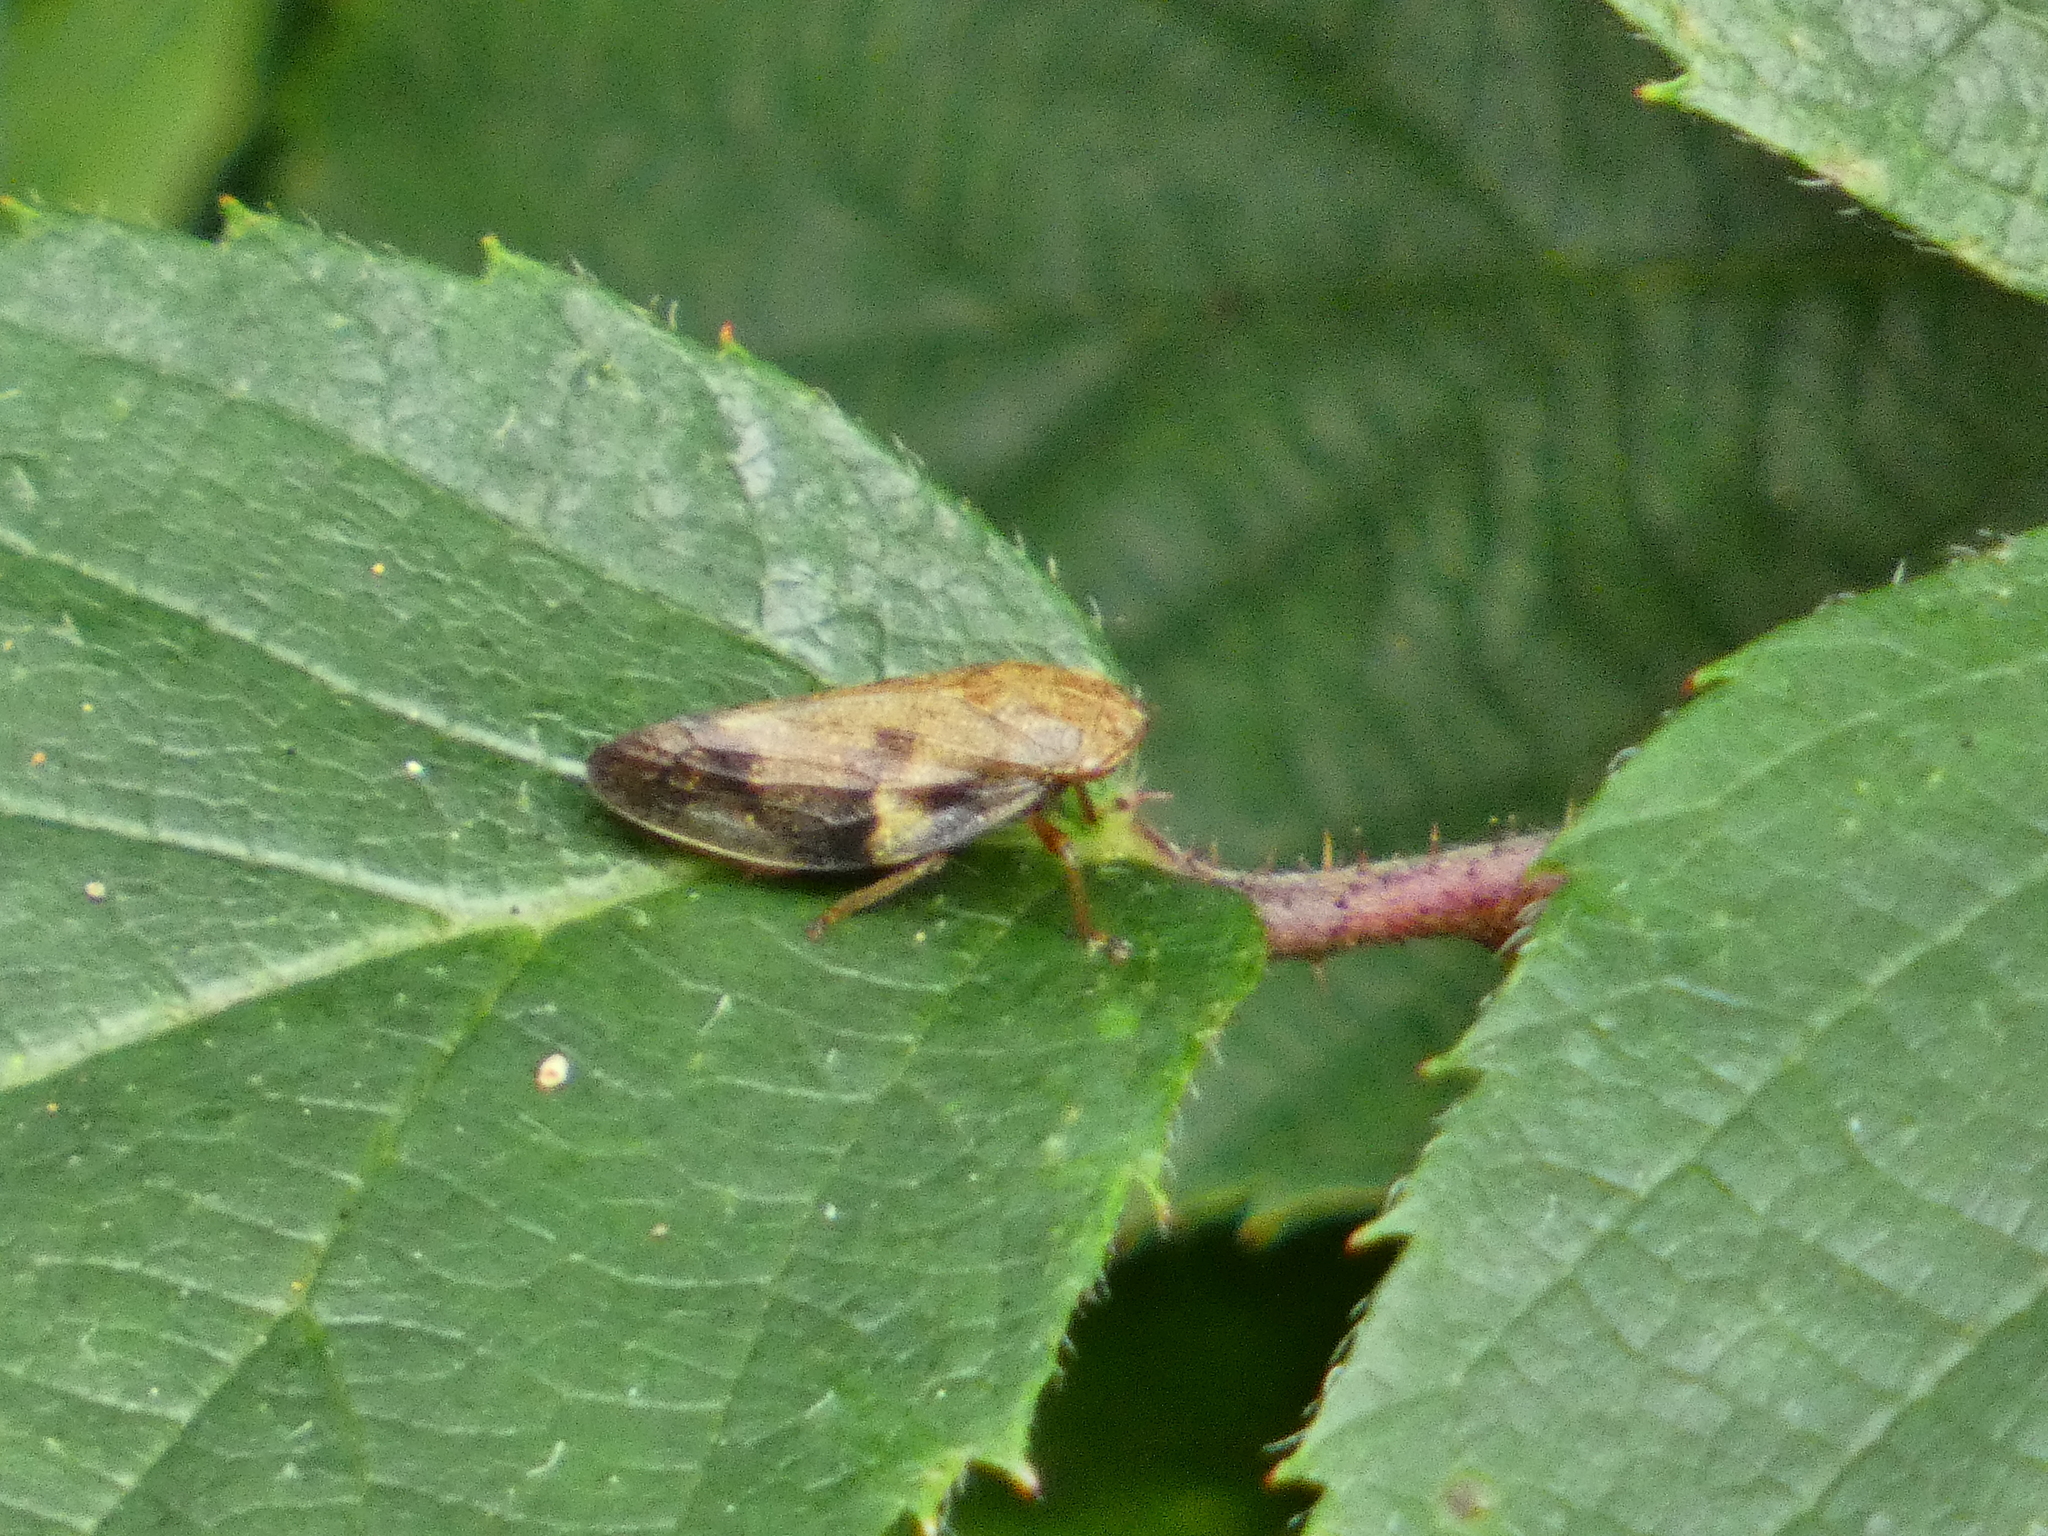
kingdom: Animalia
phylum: Arthropoda
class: Insecta
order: Hemiptera
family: Aphrophoridae
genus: Aphrophora
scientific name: Aphrophora alni
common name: European alder spittlebug
